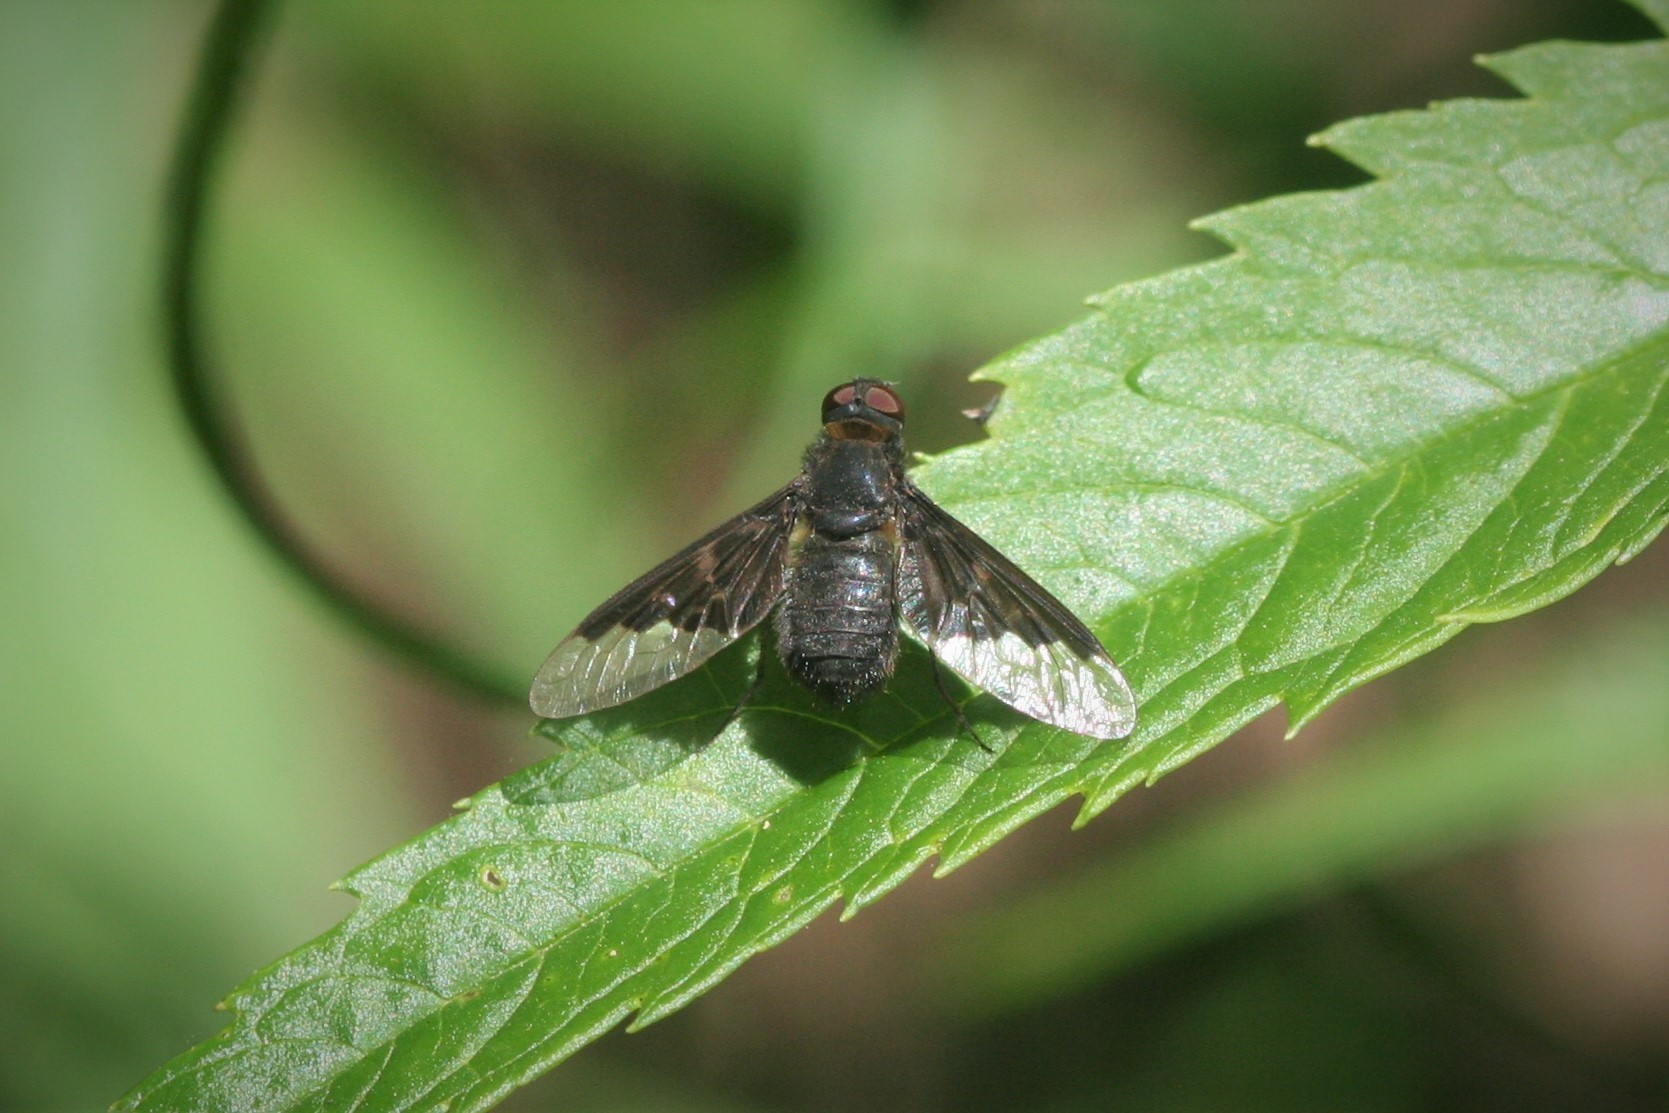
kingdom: Animalia
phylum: Arthropoda
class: Insecta
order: Diptera
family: Bombyliidae
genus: Hemipenthes
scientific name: Hemipenthes morio
